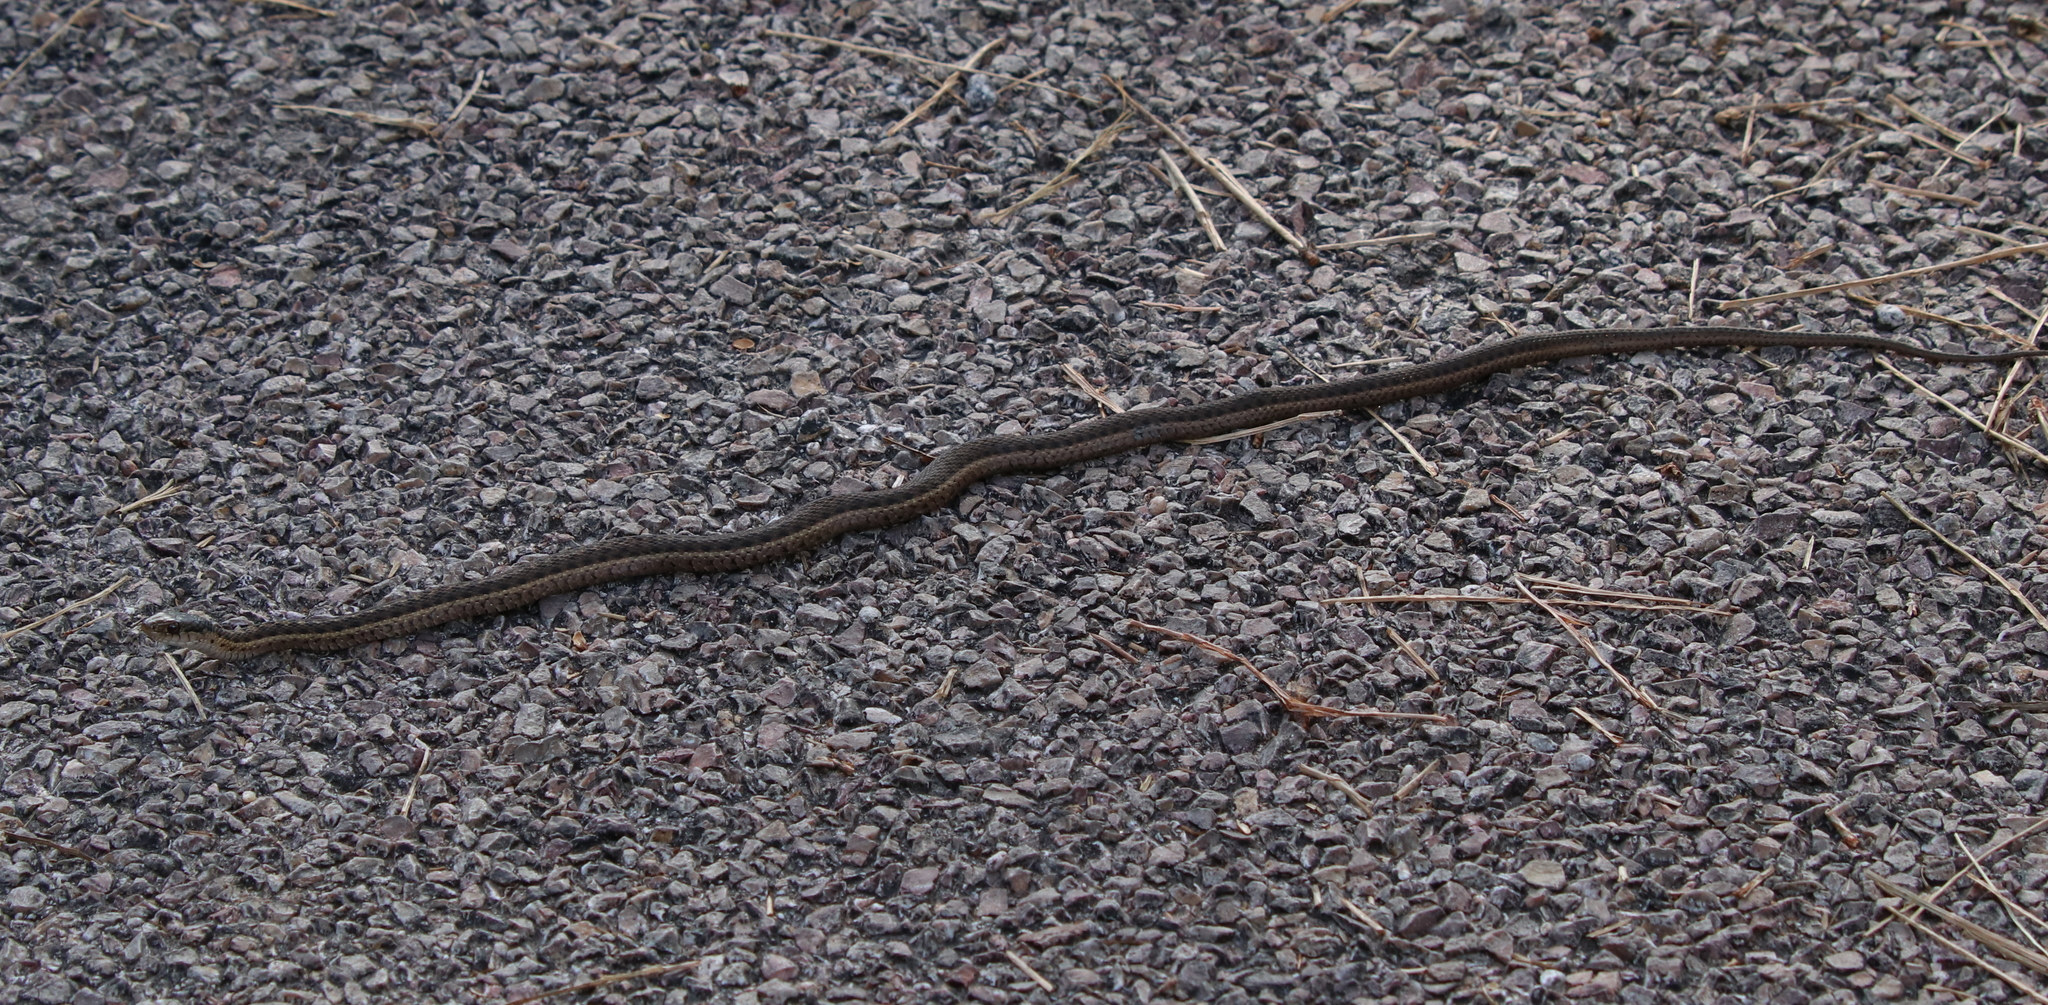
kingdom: Animalia
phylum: Chordata
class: Squamata
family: Colubridae
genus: Thamnophis
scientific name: Thamnophis elegans
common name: Western terrestrial garter snake
